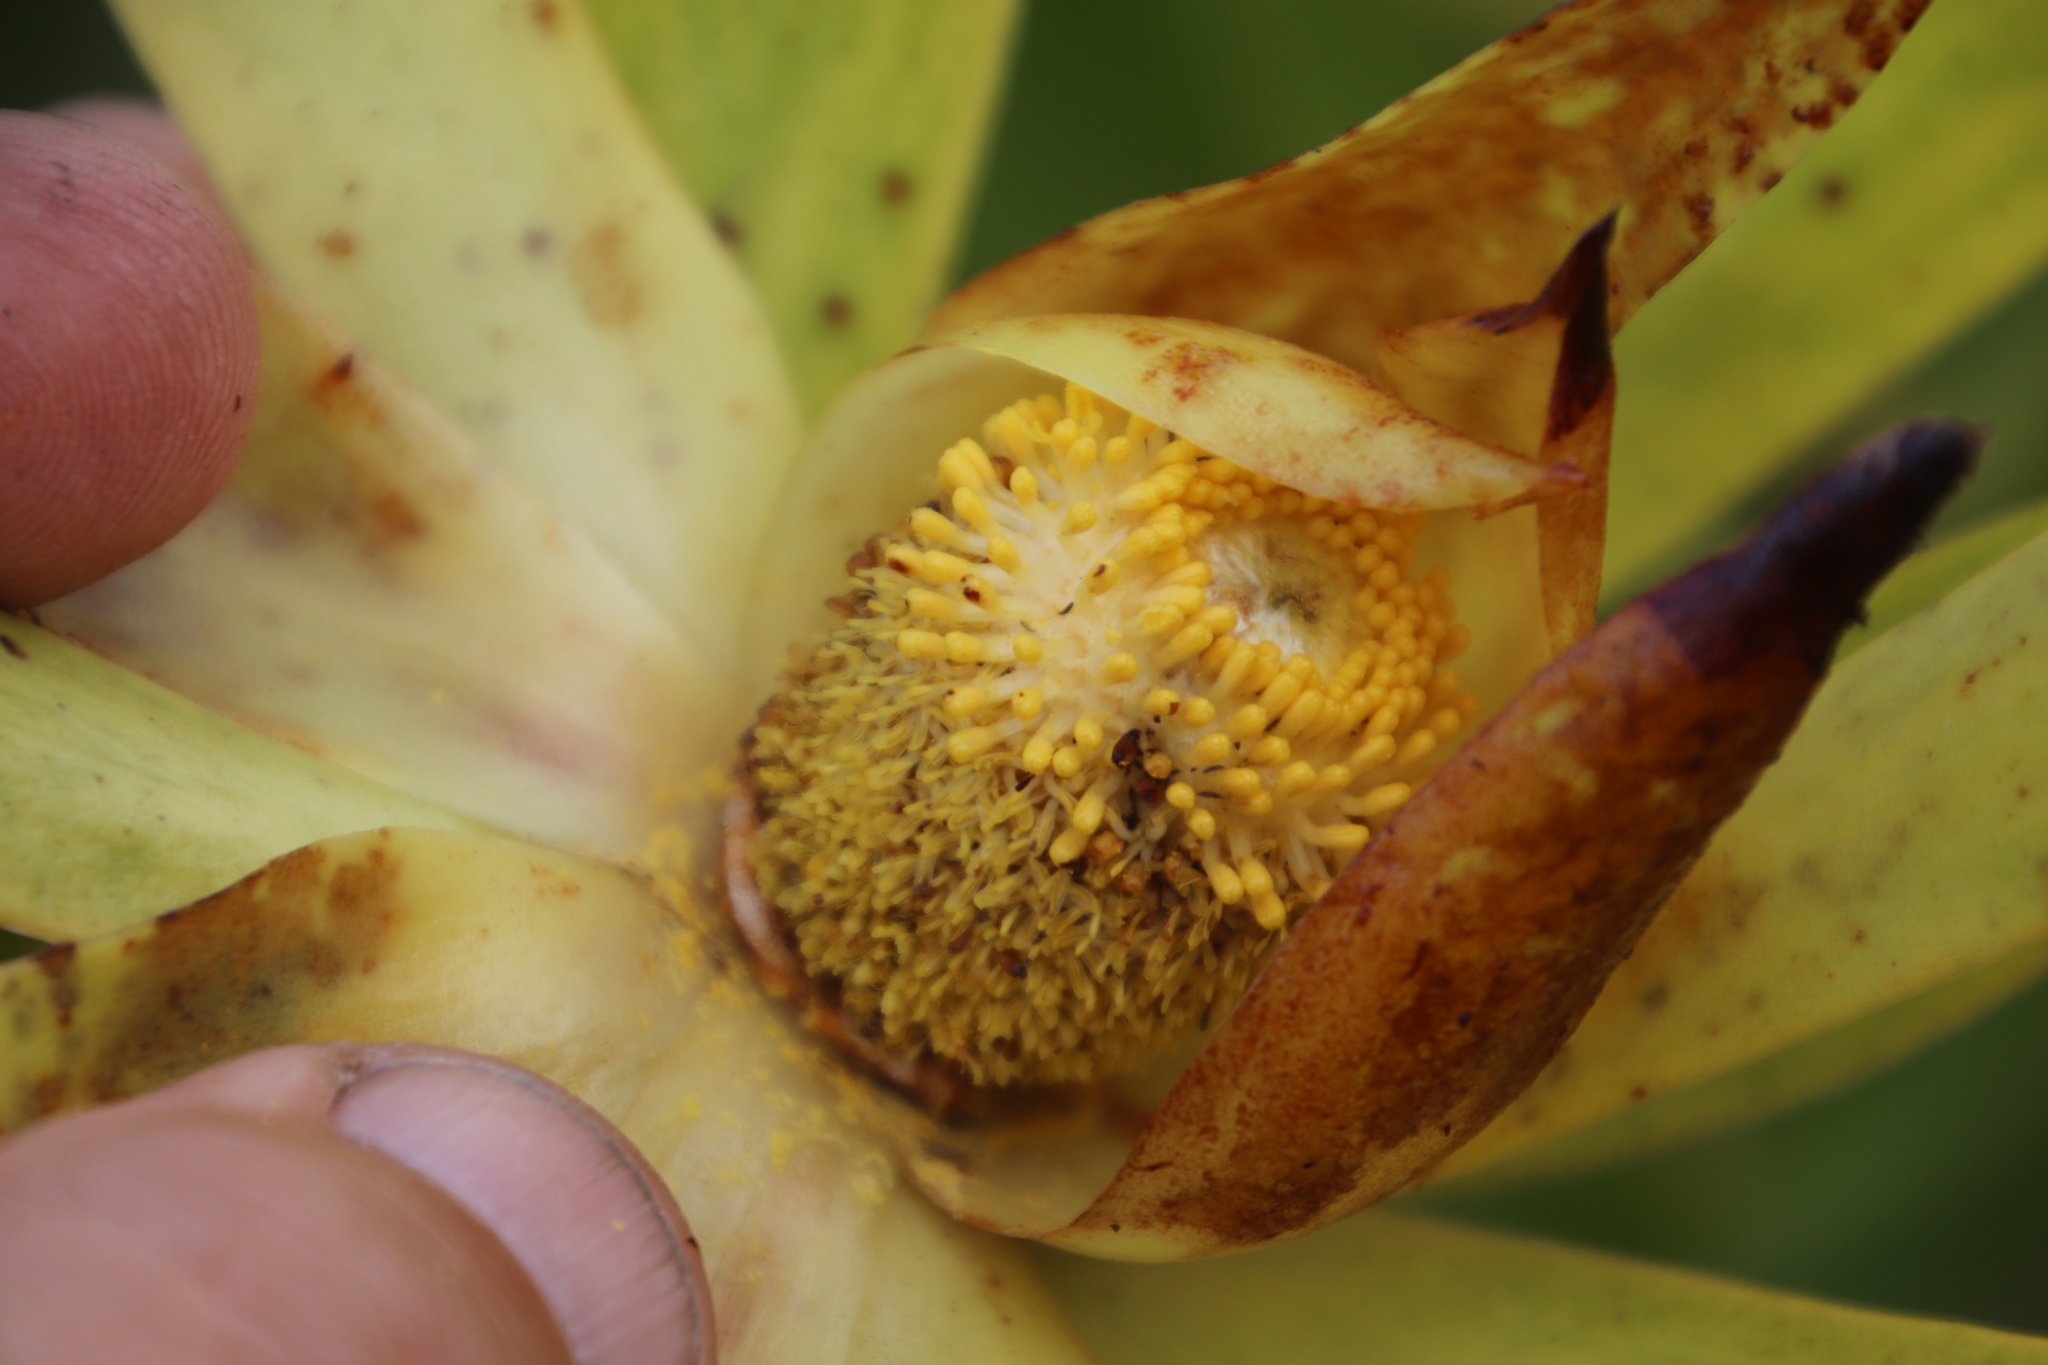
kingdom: Plantae
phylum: Tracheophyta
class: Magnoliopsida
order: Proteales
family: Proteaceae
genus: Leucadendron
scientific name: Leucadendron laureolum
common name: Golden sunshinebush
